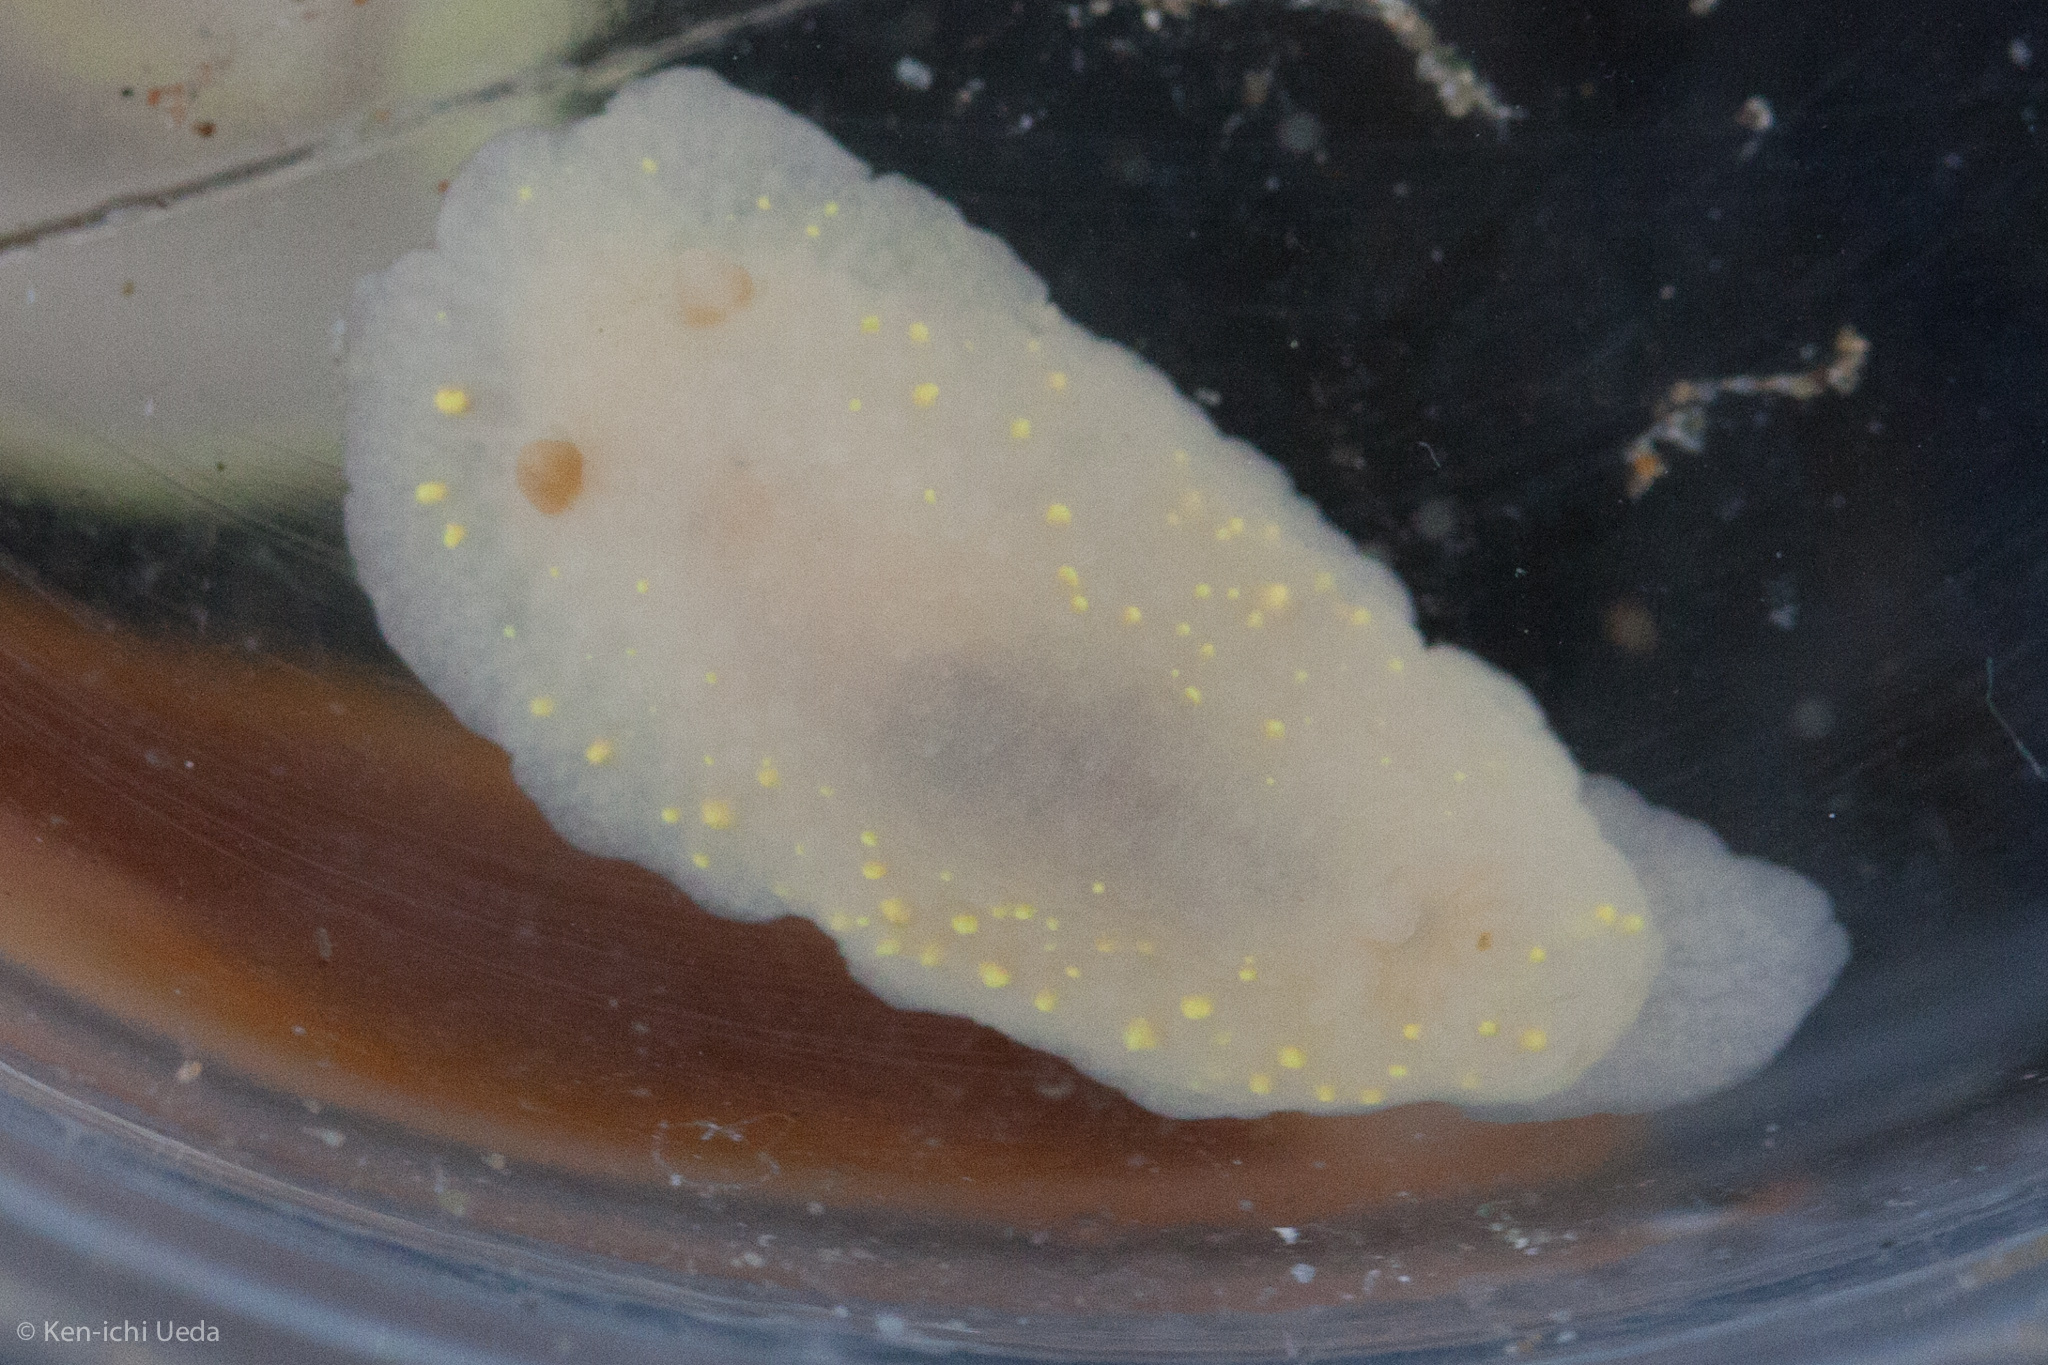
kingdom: Animalia
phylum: Mollusca
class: Gastropoda
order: Nudibranchia
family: Cadlinidae
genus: Cadlina
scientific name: Cadlina modesta
